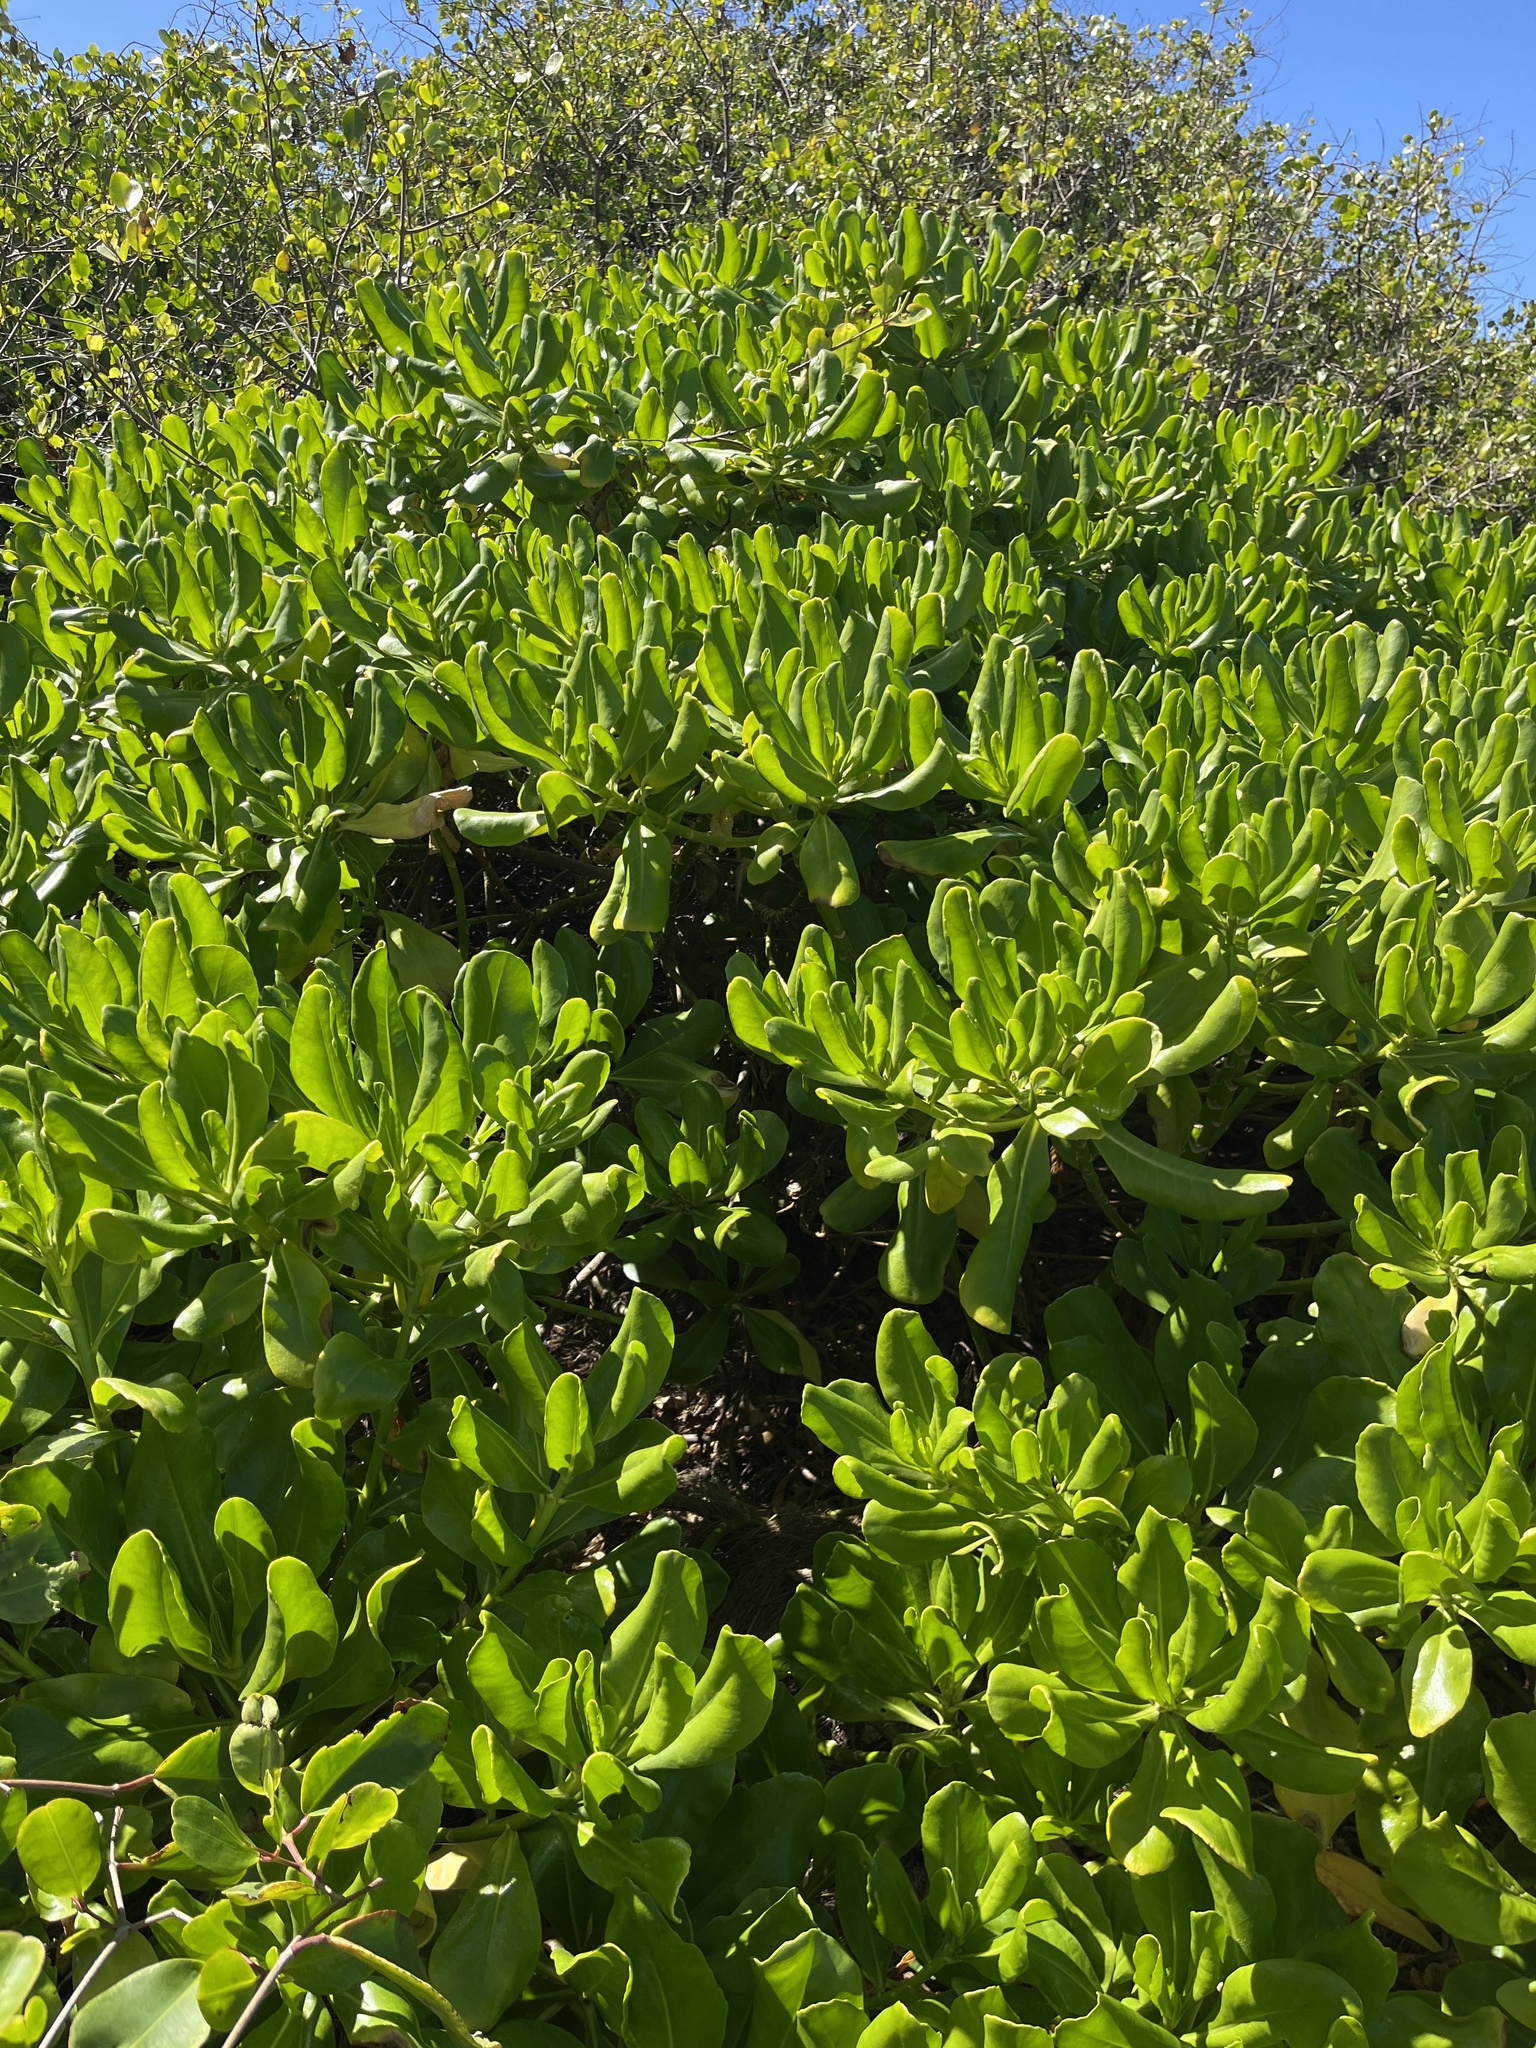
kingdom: Plantae
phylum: Tracheophyta
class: Magnoliopsida
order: Asterales
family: Goodeniaceae
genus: Scaevola
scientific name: Scaevola taccada
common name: Sea lettucetree
